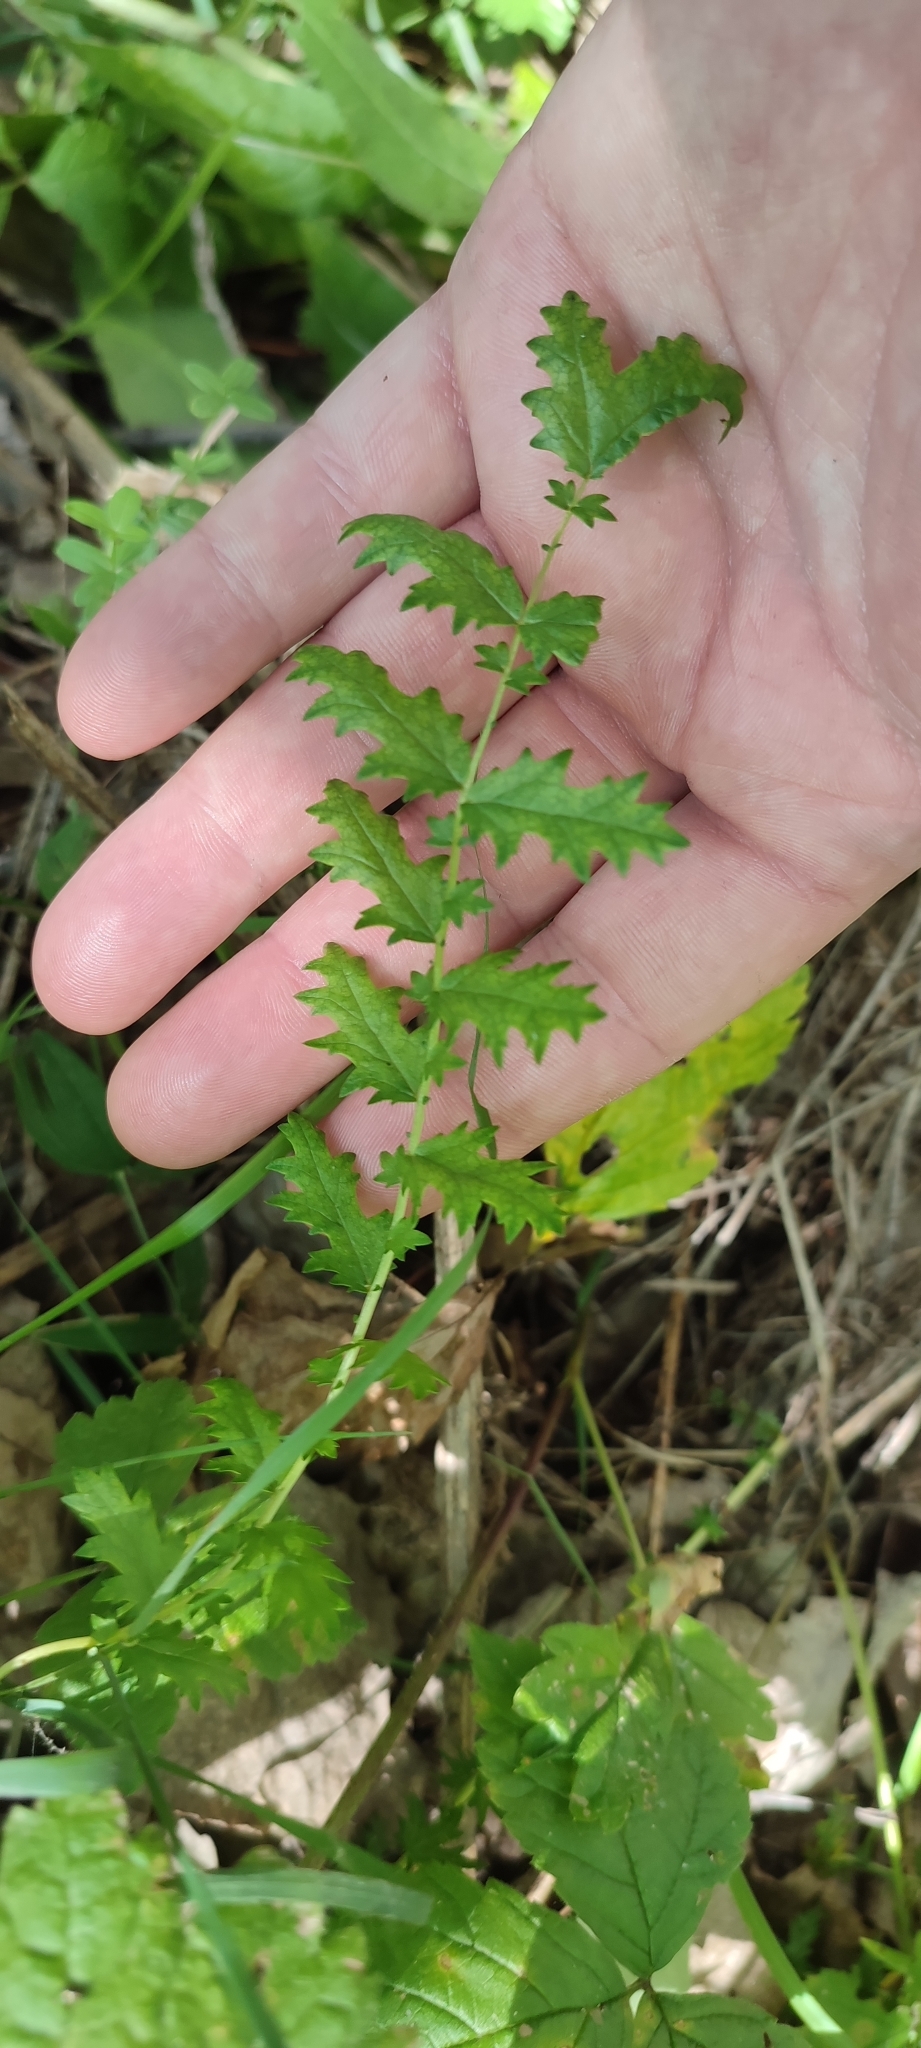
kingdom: Plantae
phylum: Tracheophyta
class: Magnoliopsida
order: Rosales
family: Rosaceae
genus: Filipendula
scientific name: Filipendula vulgaris
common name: Dropwort
